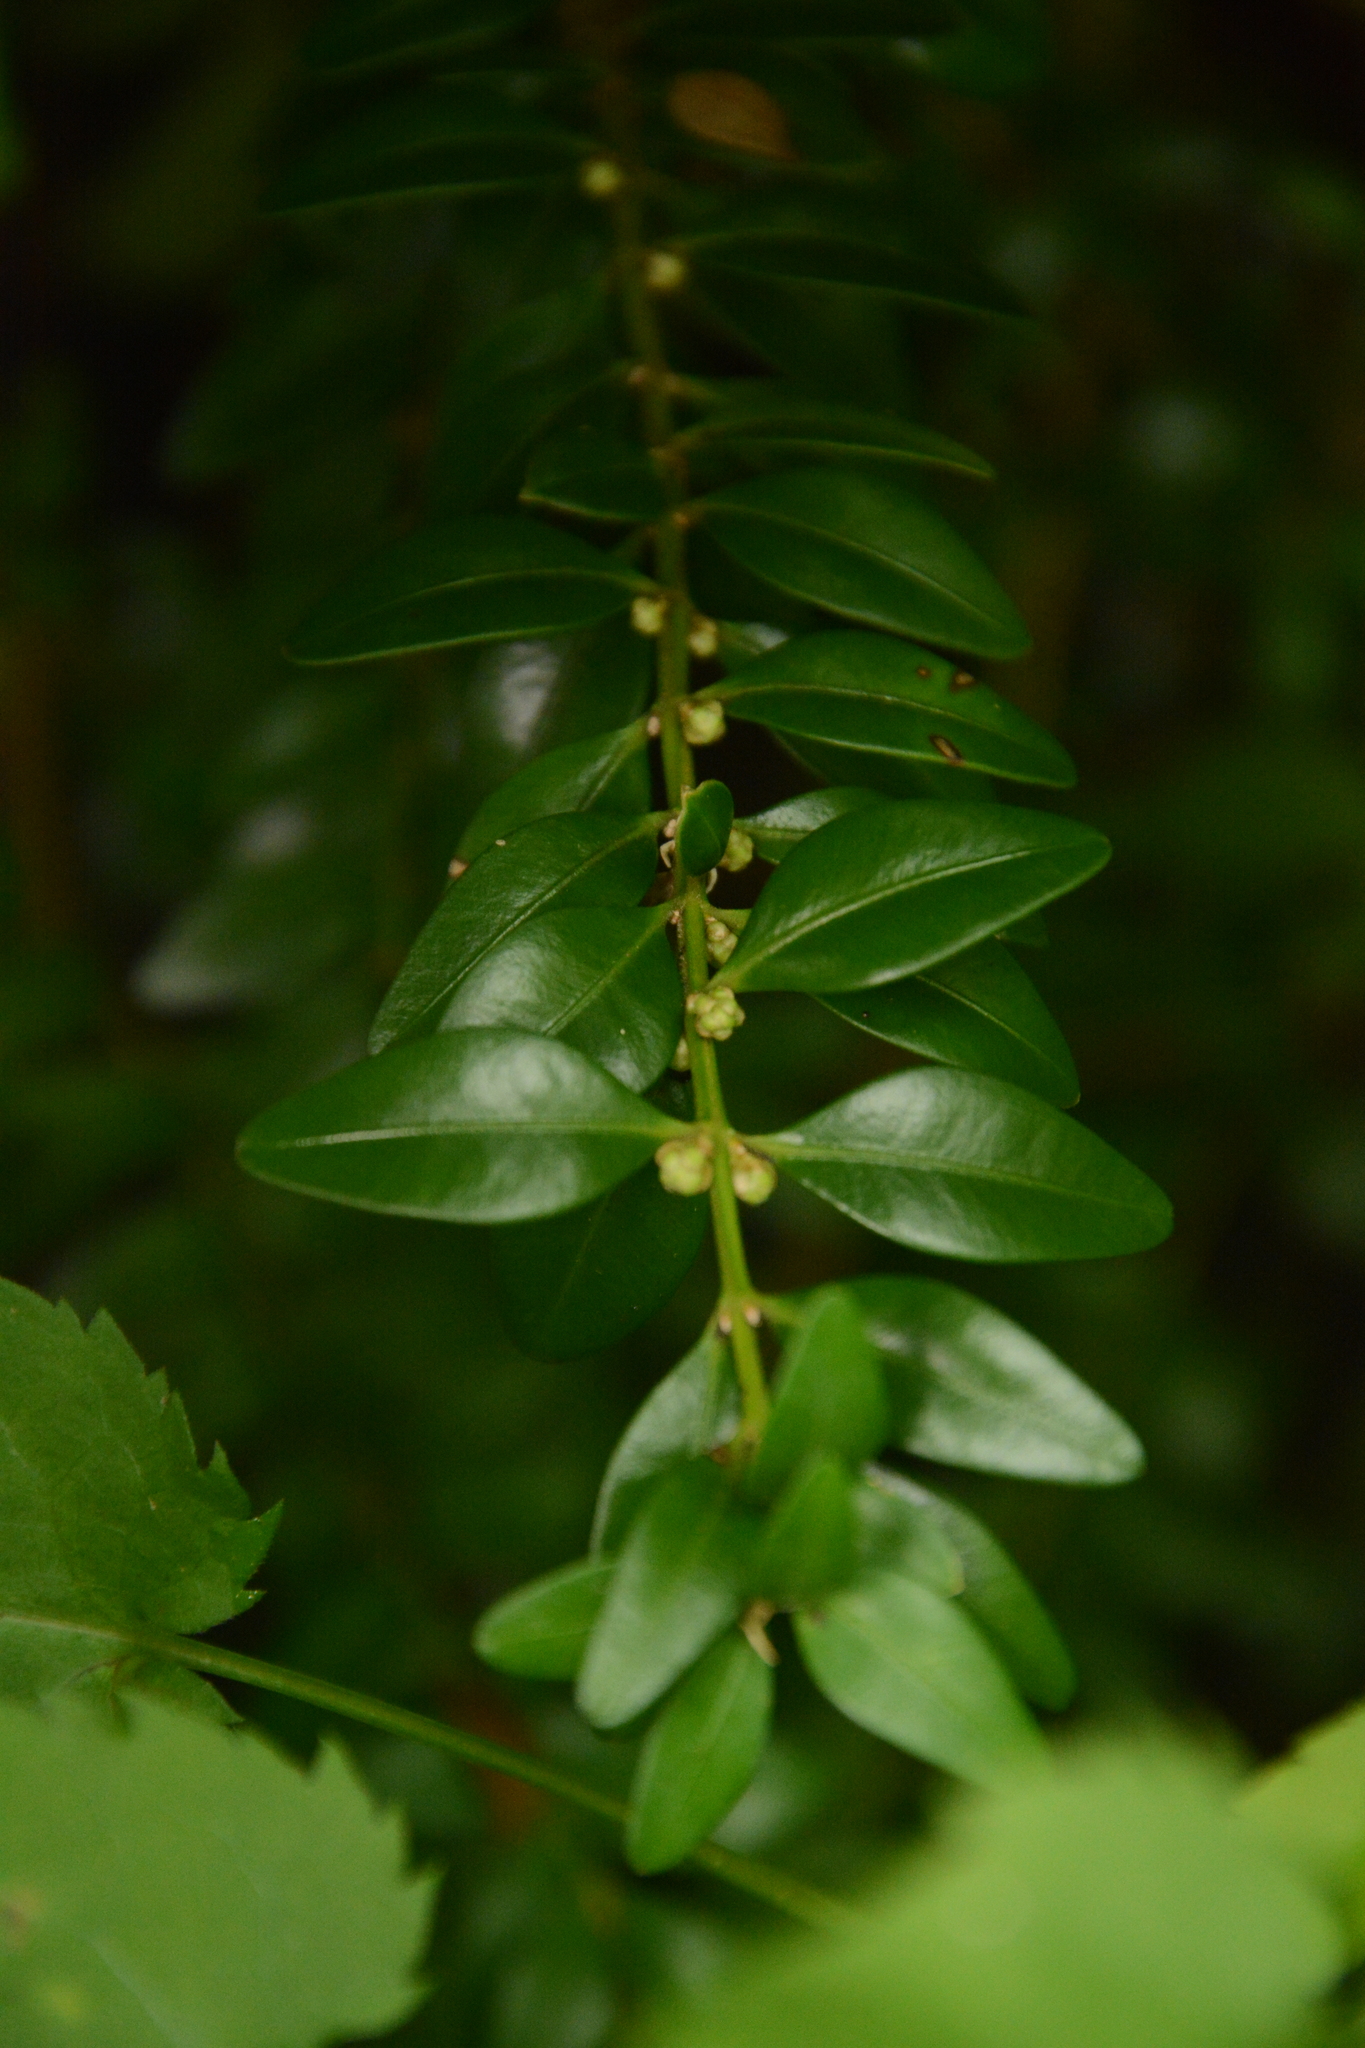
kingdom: Plantae
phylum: Tracheophyta
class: Magnoliopsida
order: Buxales
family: Buxaceae
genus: Buxus
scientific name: Buxus sempervirens
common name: Box
